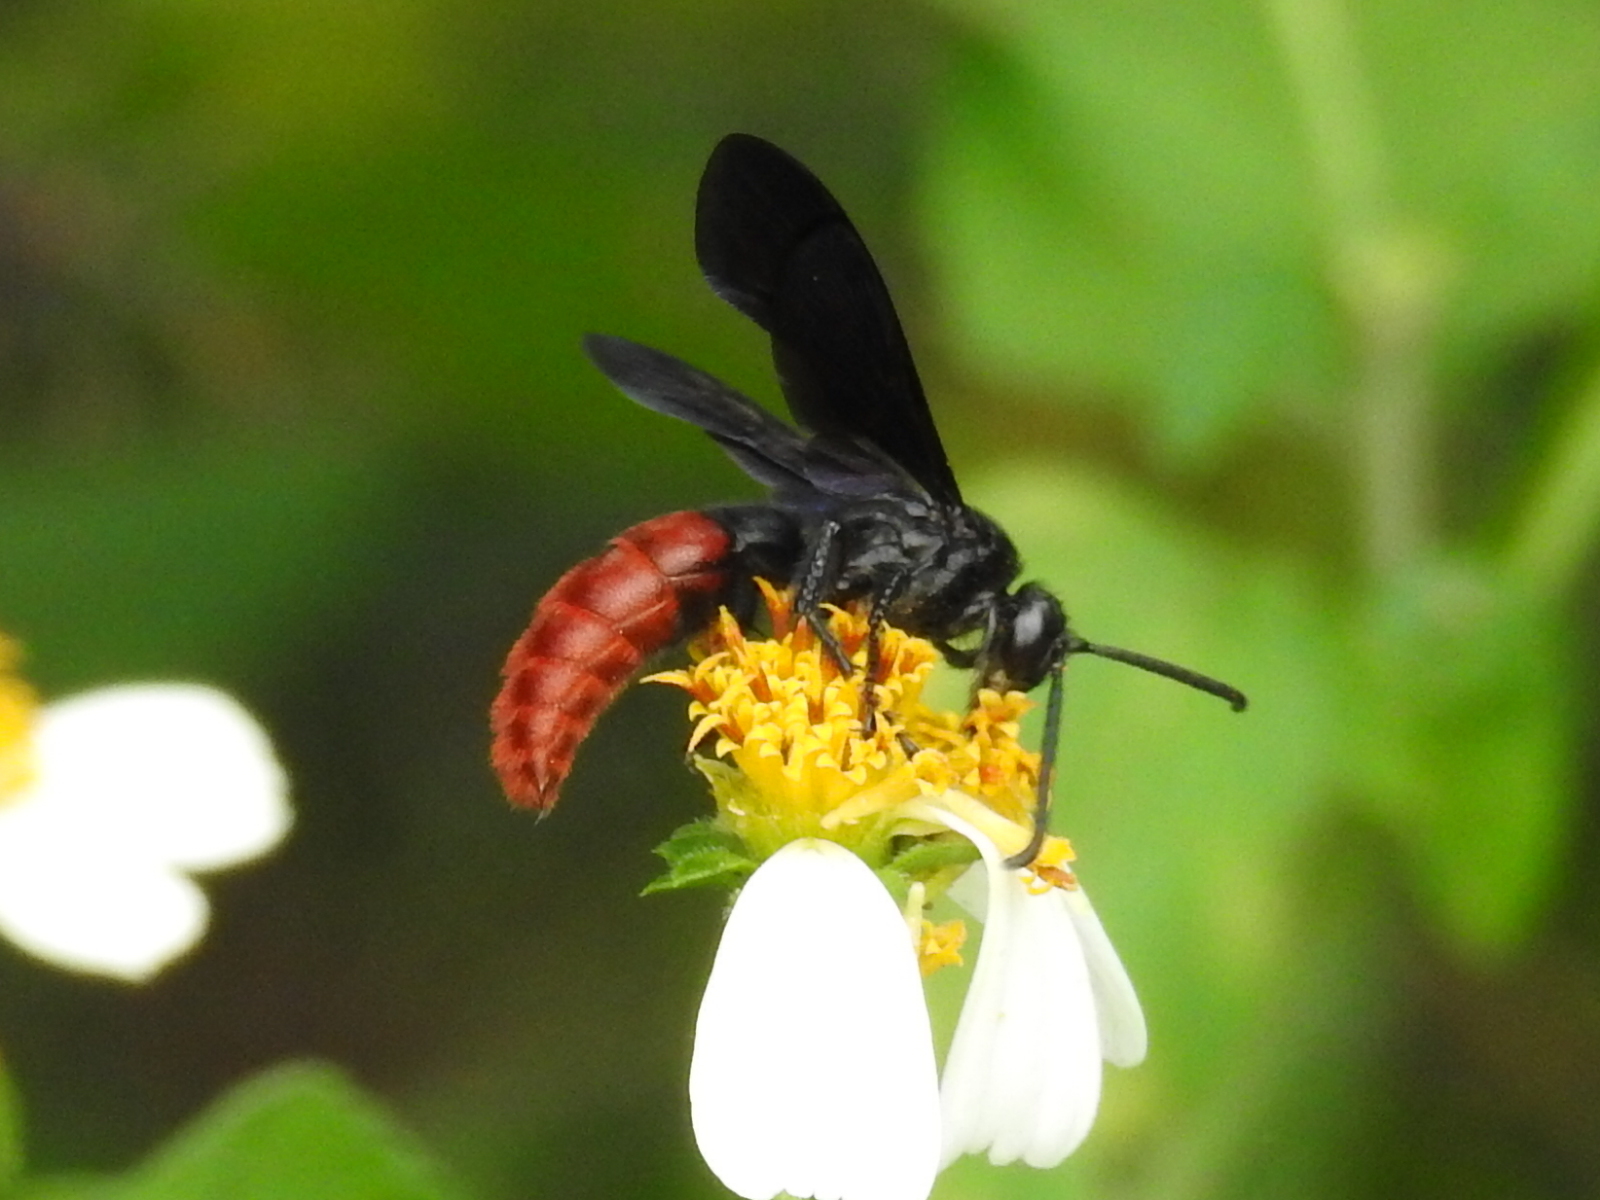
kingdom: Animalia
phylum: Arthropoda
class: Insecta
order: Hymenoptera
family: Scoliidae
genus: Liacos
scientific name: Liacos erythrosoma
